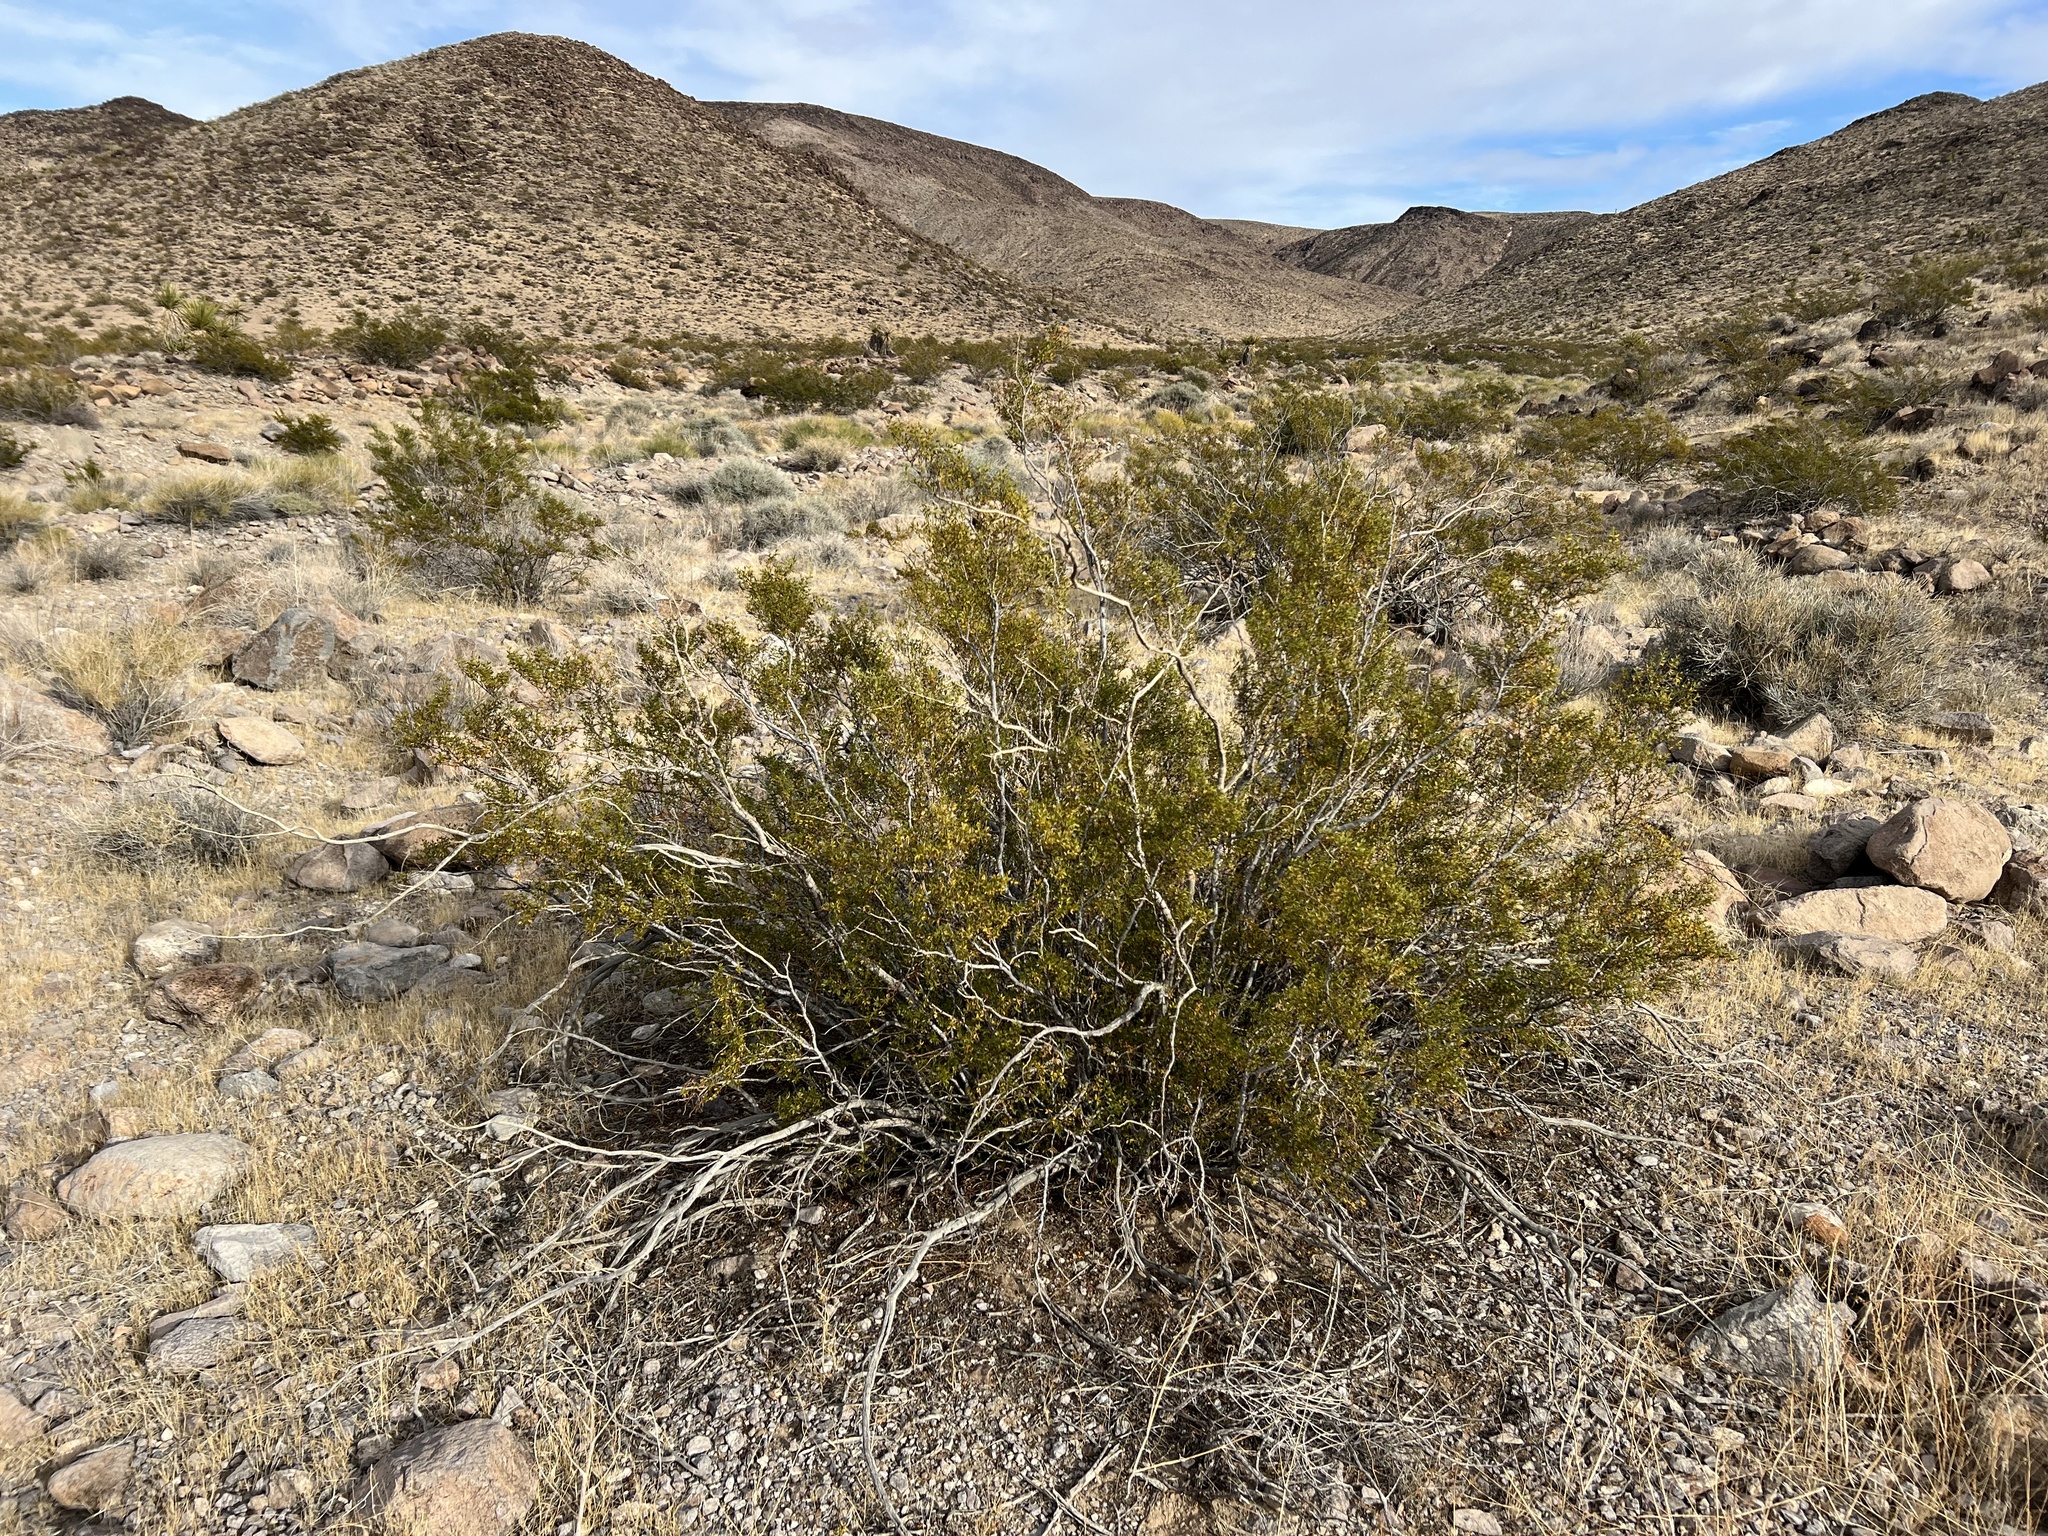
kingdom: Plantae
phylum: Tracheophyta
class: Magnoliopsida
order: Zygophyllales
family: Zygophyllaceae
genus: Larrea
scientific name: Larrea tridentata
